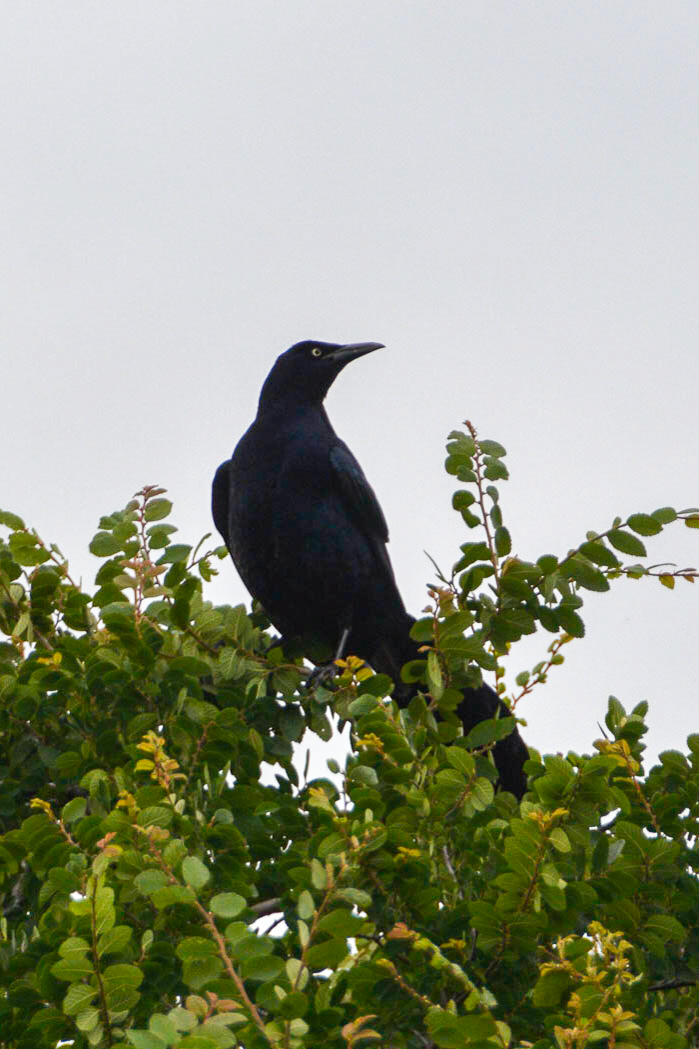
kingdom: Animalia
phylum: Chordata
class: Aves
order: Passeriformes
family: Icteridae
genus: Quiscalus
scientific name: Quiscalus mexicanus
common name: Great-tailed grackle
